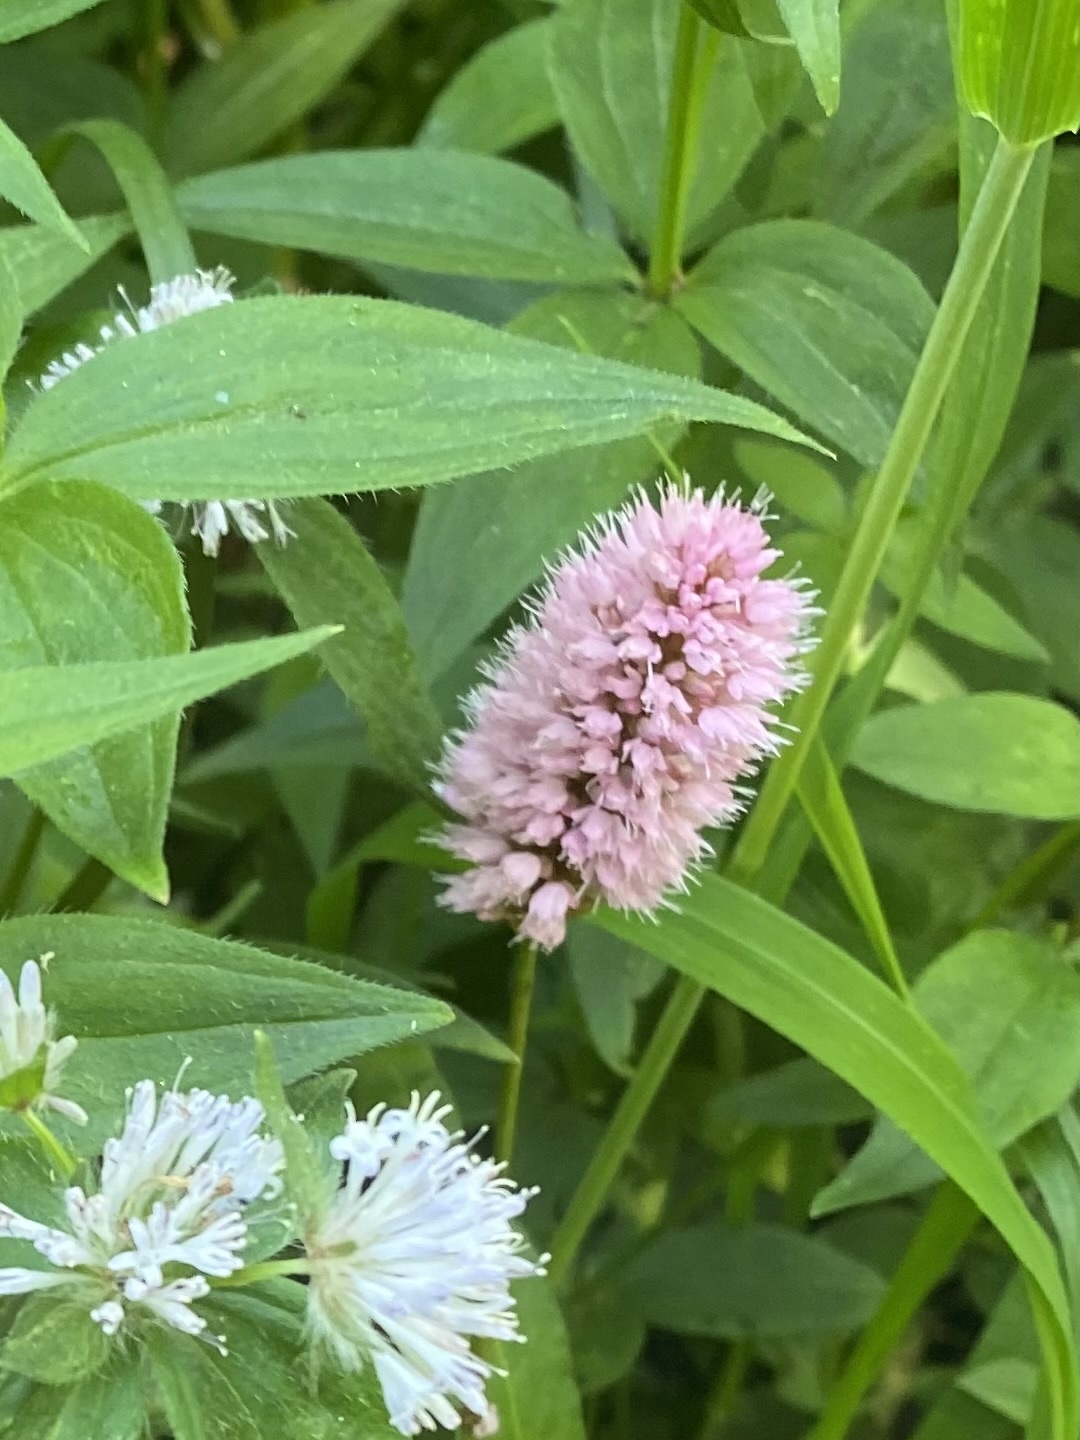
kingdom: Plantae
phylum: Tracheophyta
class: Magnoliopsida
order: Caryophyllales
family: Polygonaceae
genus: Bistorta
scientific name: Bistorta carnea
